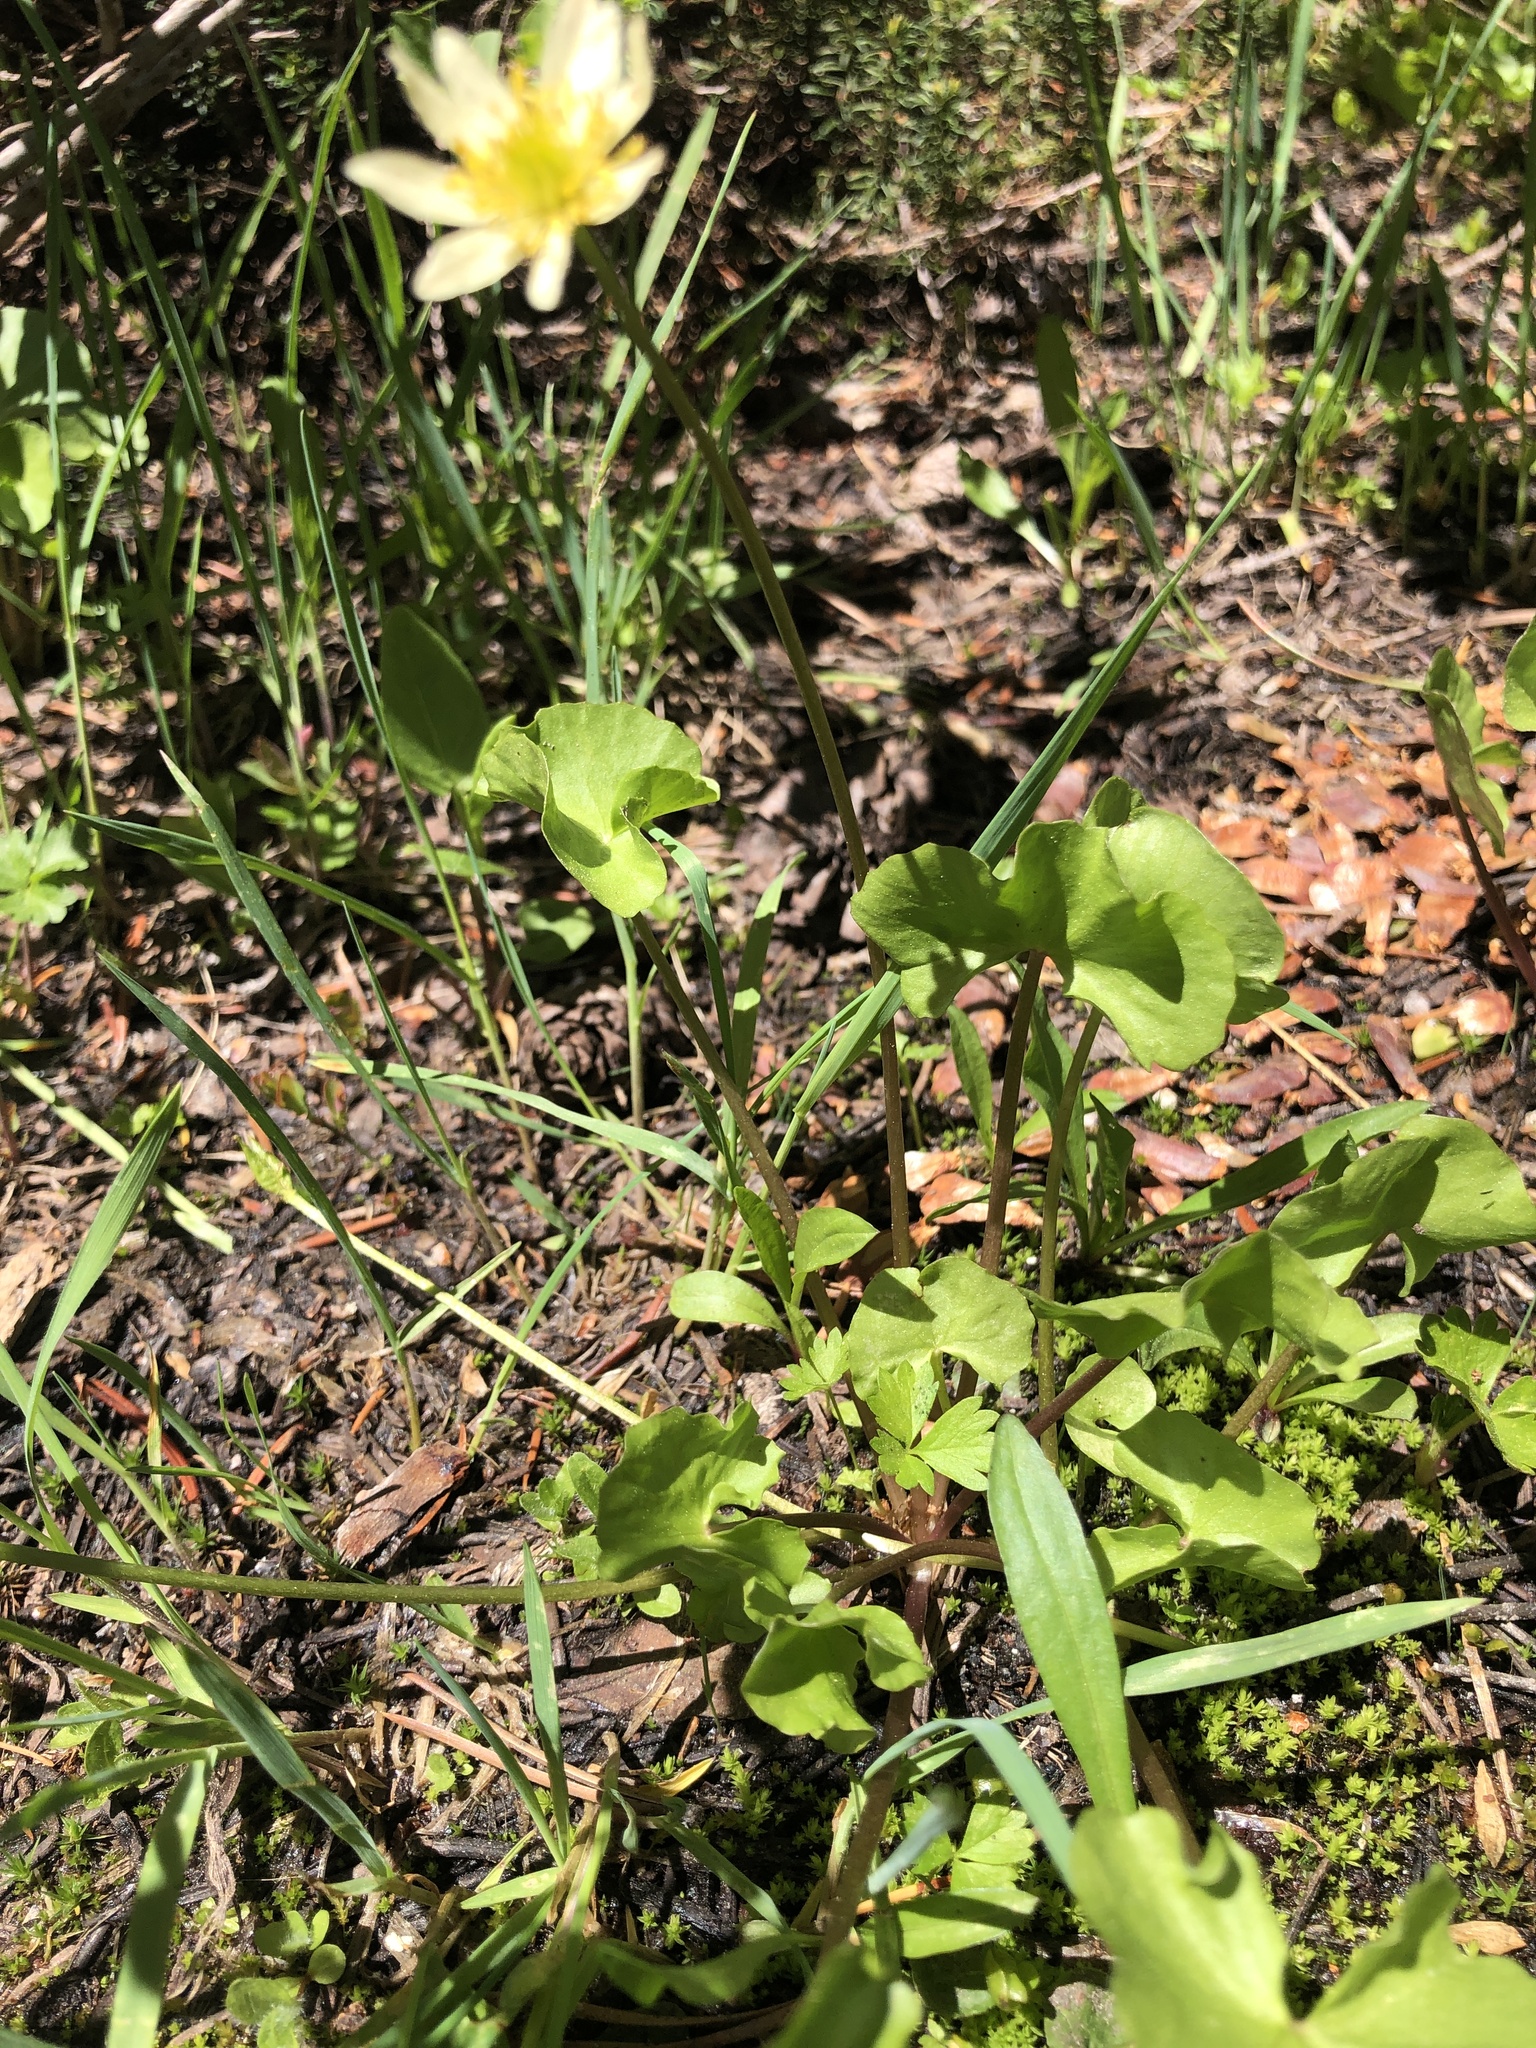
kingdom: Plantae
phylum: Tracheophyta
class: Magnoliopsida
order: Ranunculales
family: Ranunculaceae
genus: Caltha
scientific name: Caltha leptosepala
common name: Elkslip
